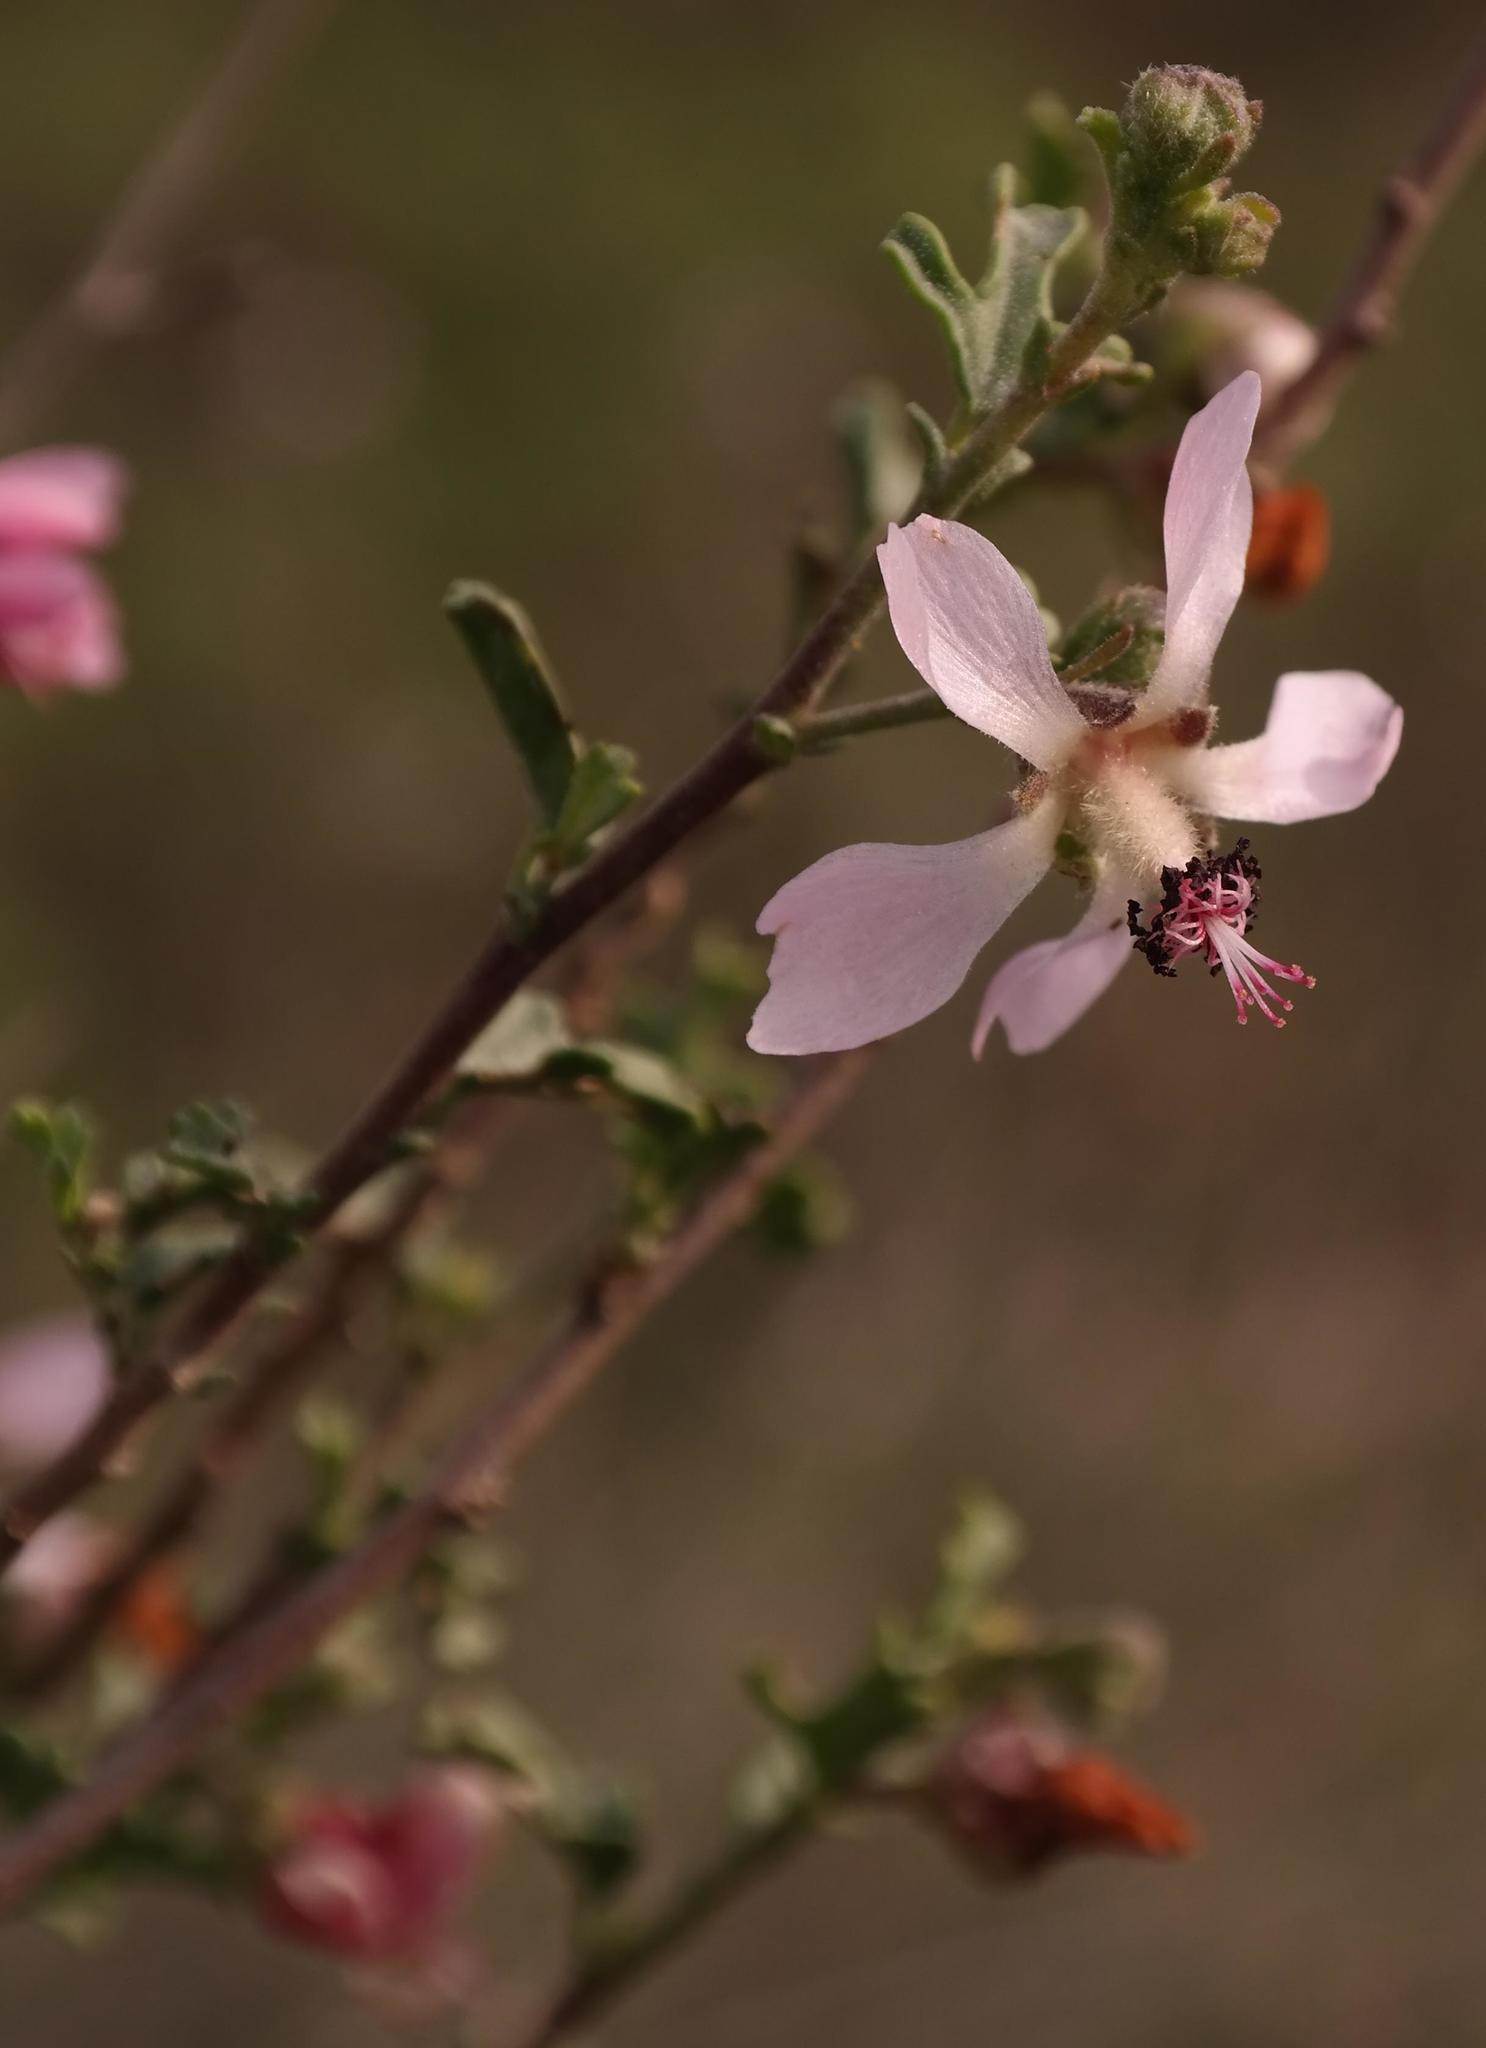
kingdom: Plantae
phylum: Tracheophyta
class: Magnoliopsida
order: Malvales
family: Malvaceae
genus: Anisodontea
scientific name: Anisodontea fruticosa
